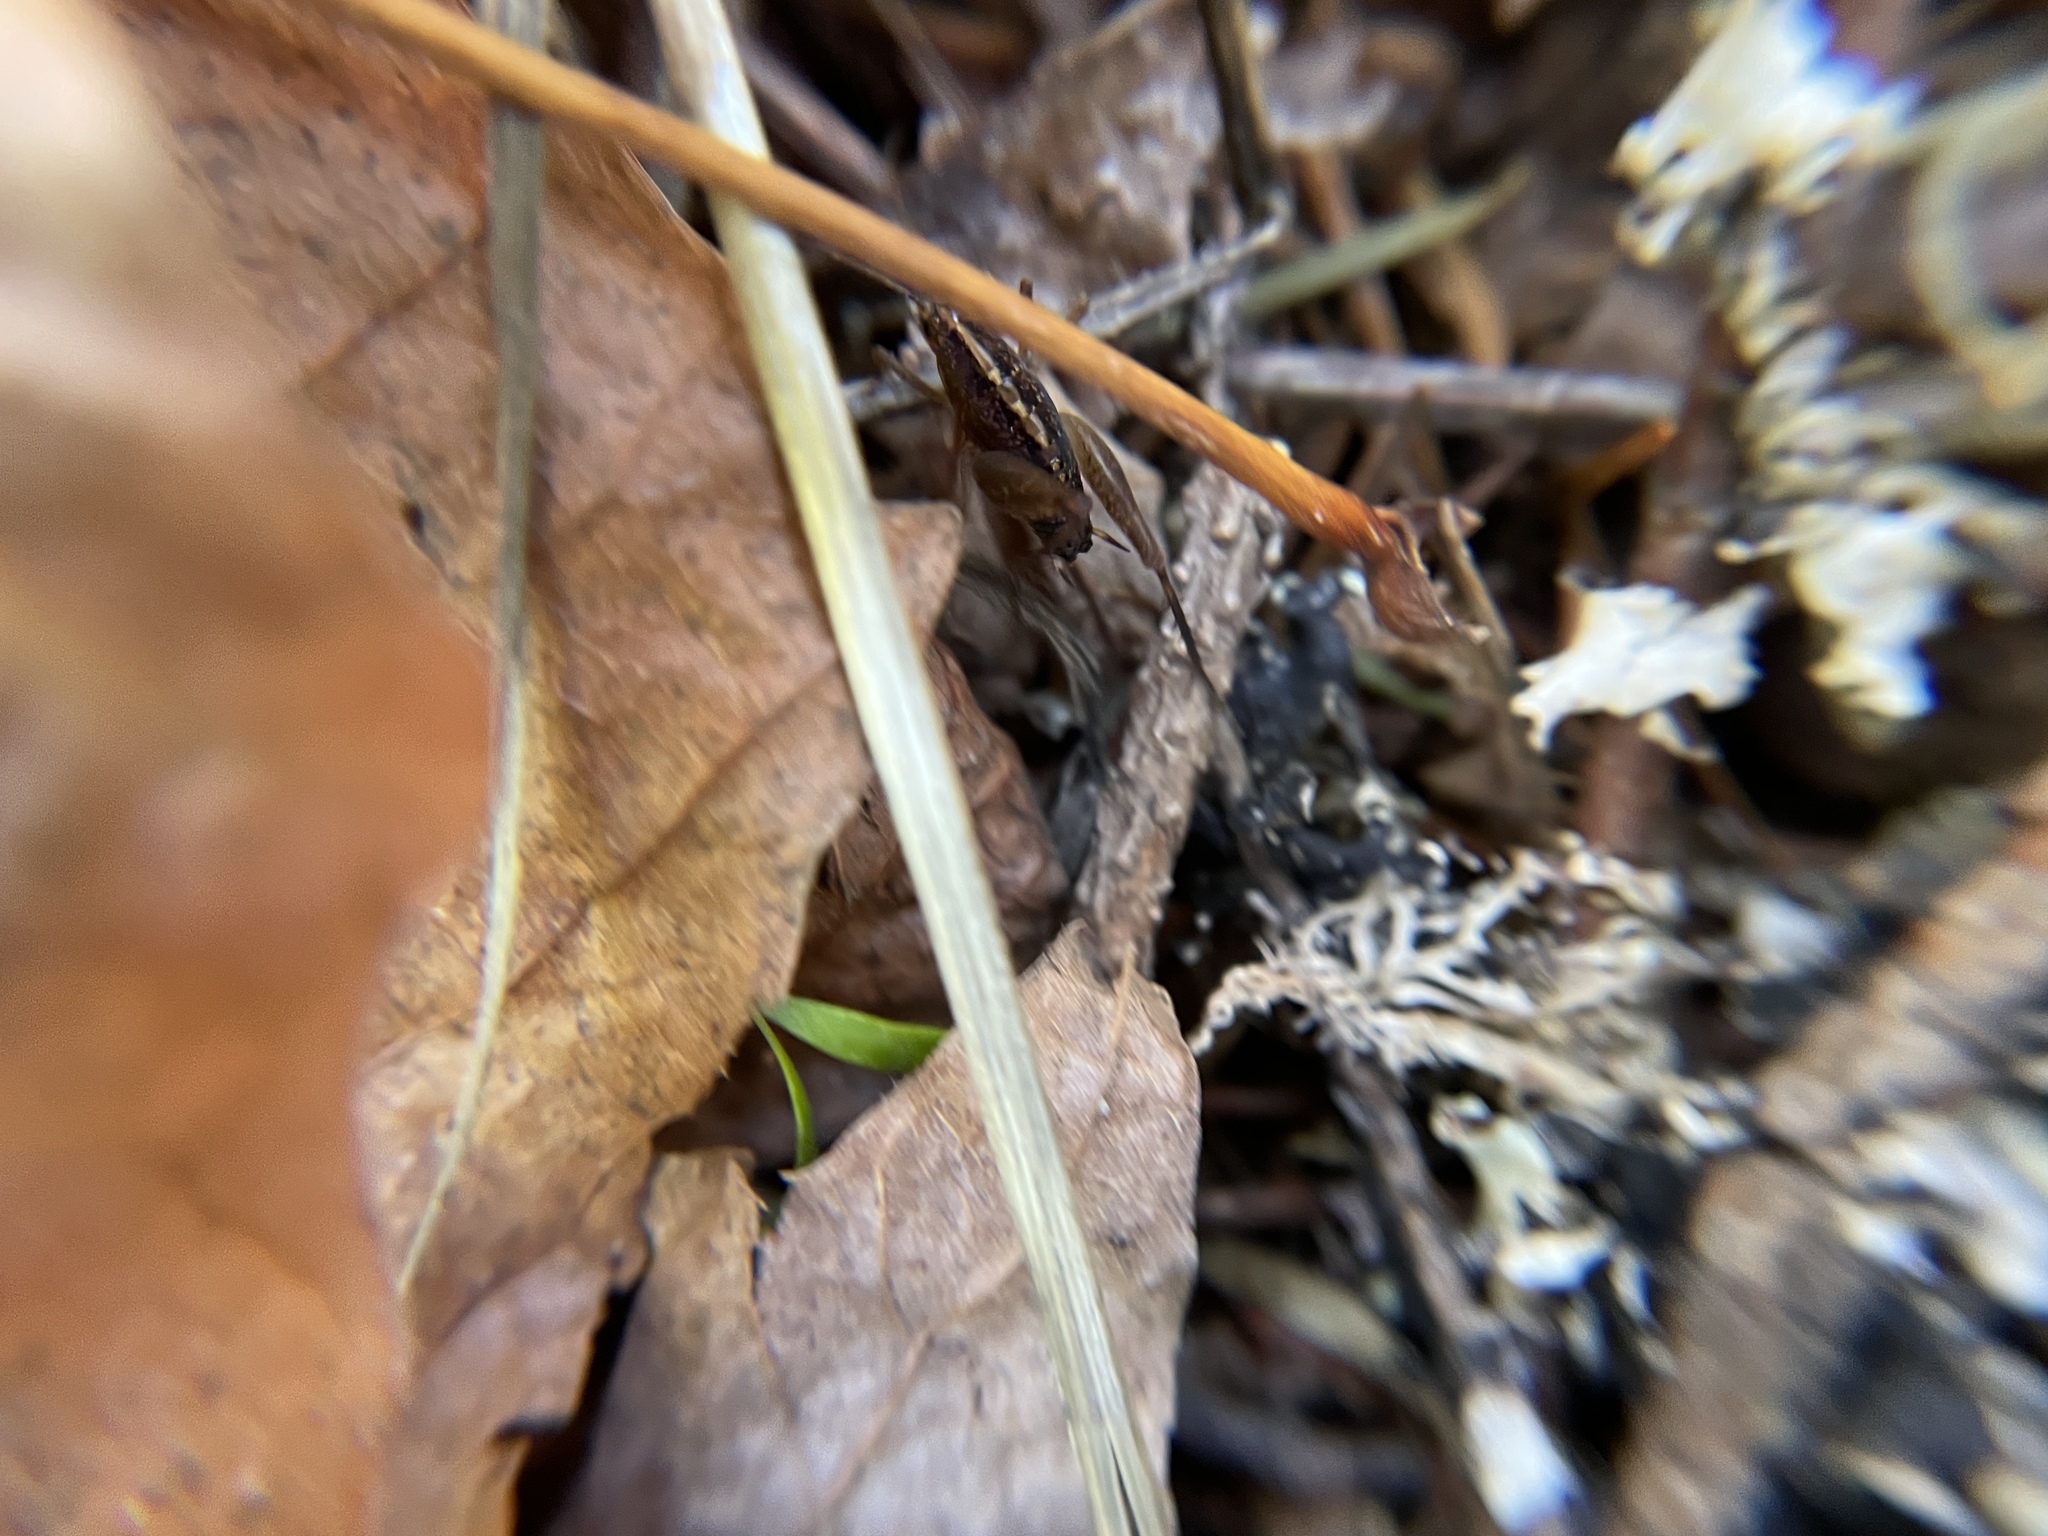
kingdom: Animalia
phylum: Arthropoda
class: Insecta
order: Orthoptera
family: Rhaphidophoridae
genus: Pristoceuthophilus
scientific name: Pristoceuthophilus
